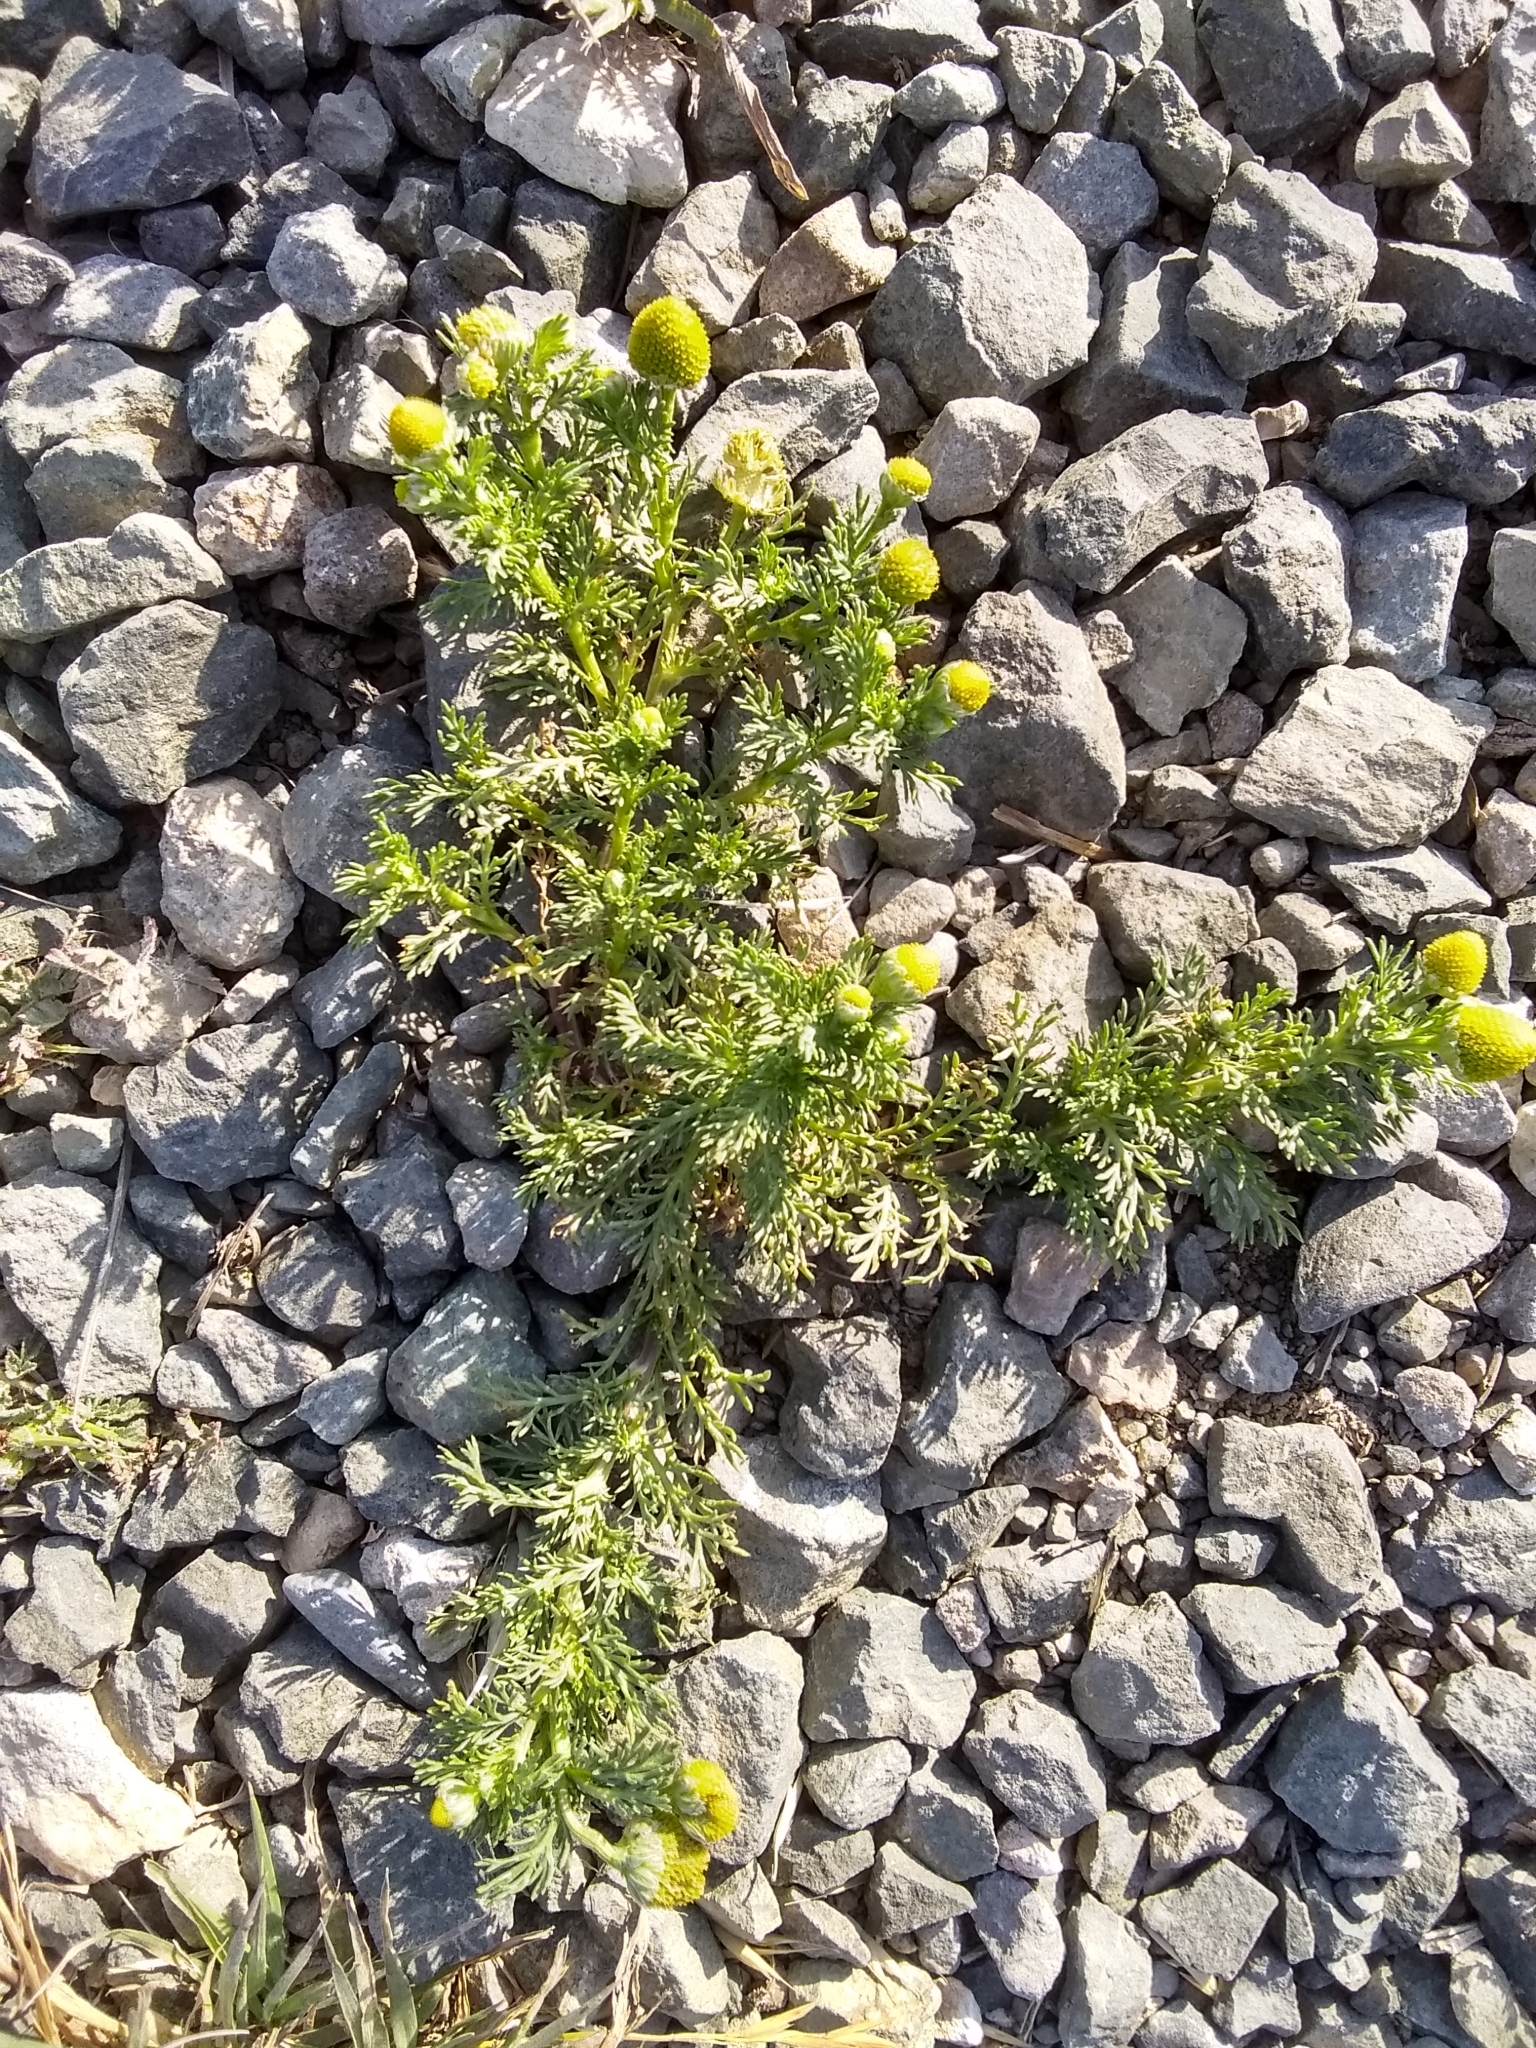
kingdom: Plantae
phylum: Tracheophyta
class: Magnoliopsida
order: Asterales
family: Asteraceae
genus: Matricaria
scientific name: Matricaria discoidea
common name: Disc mayweed
